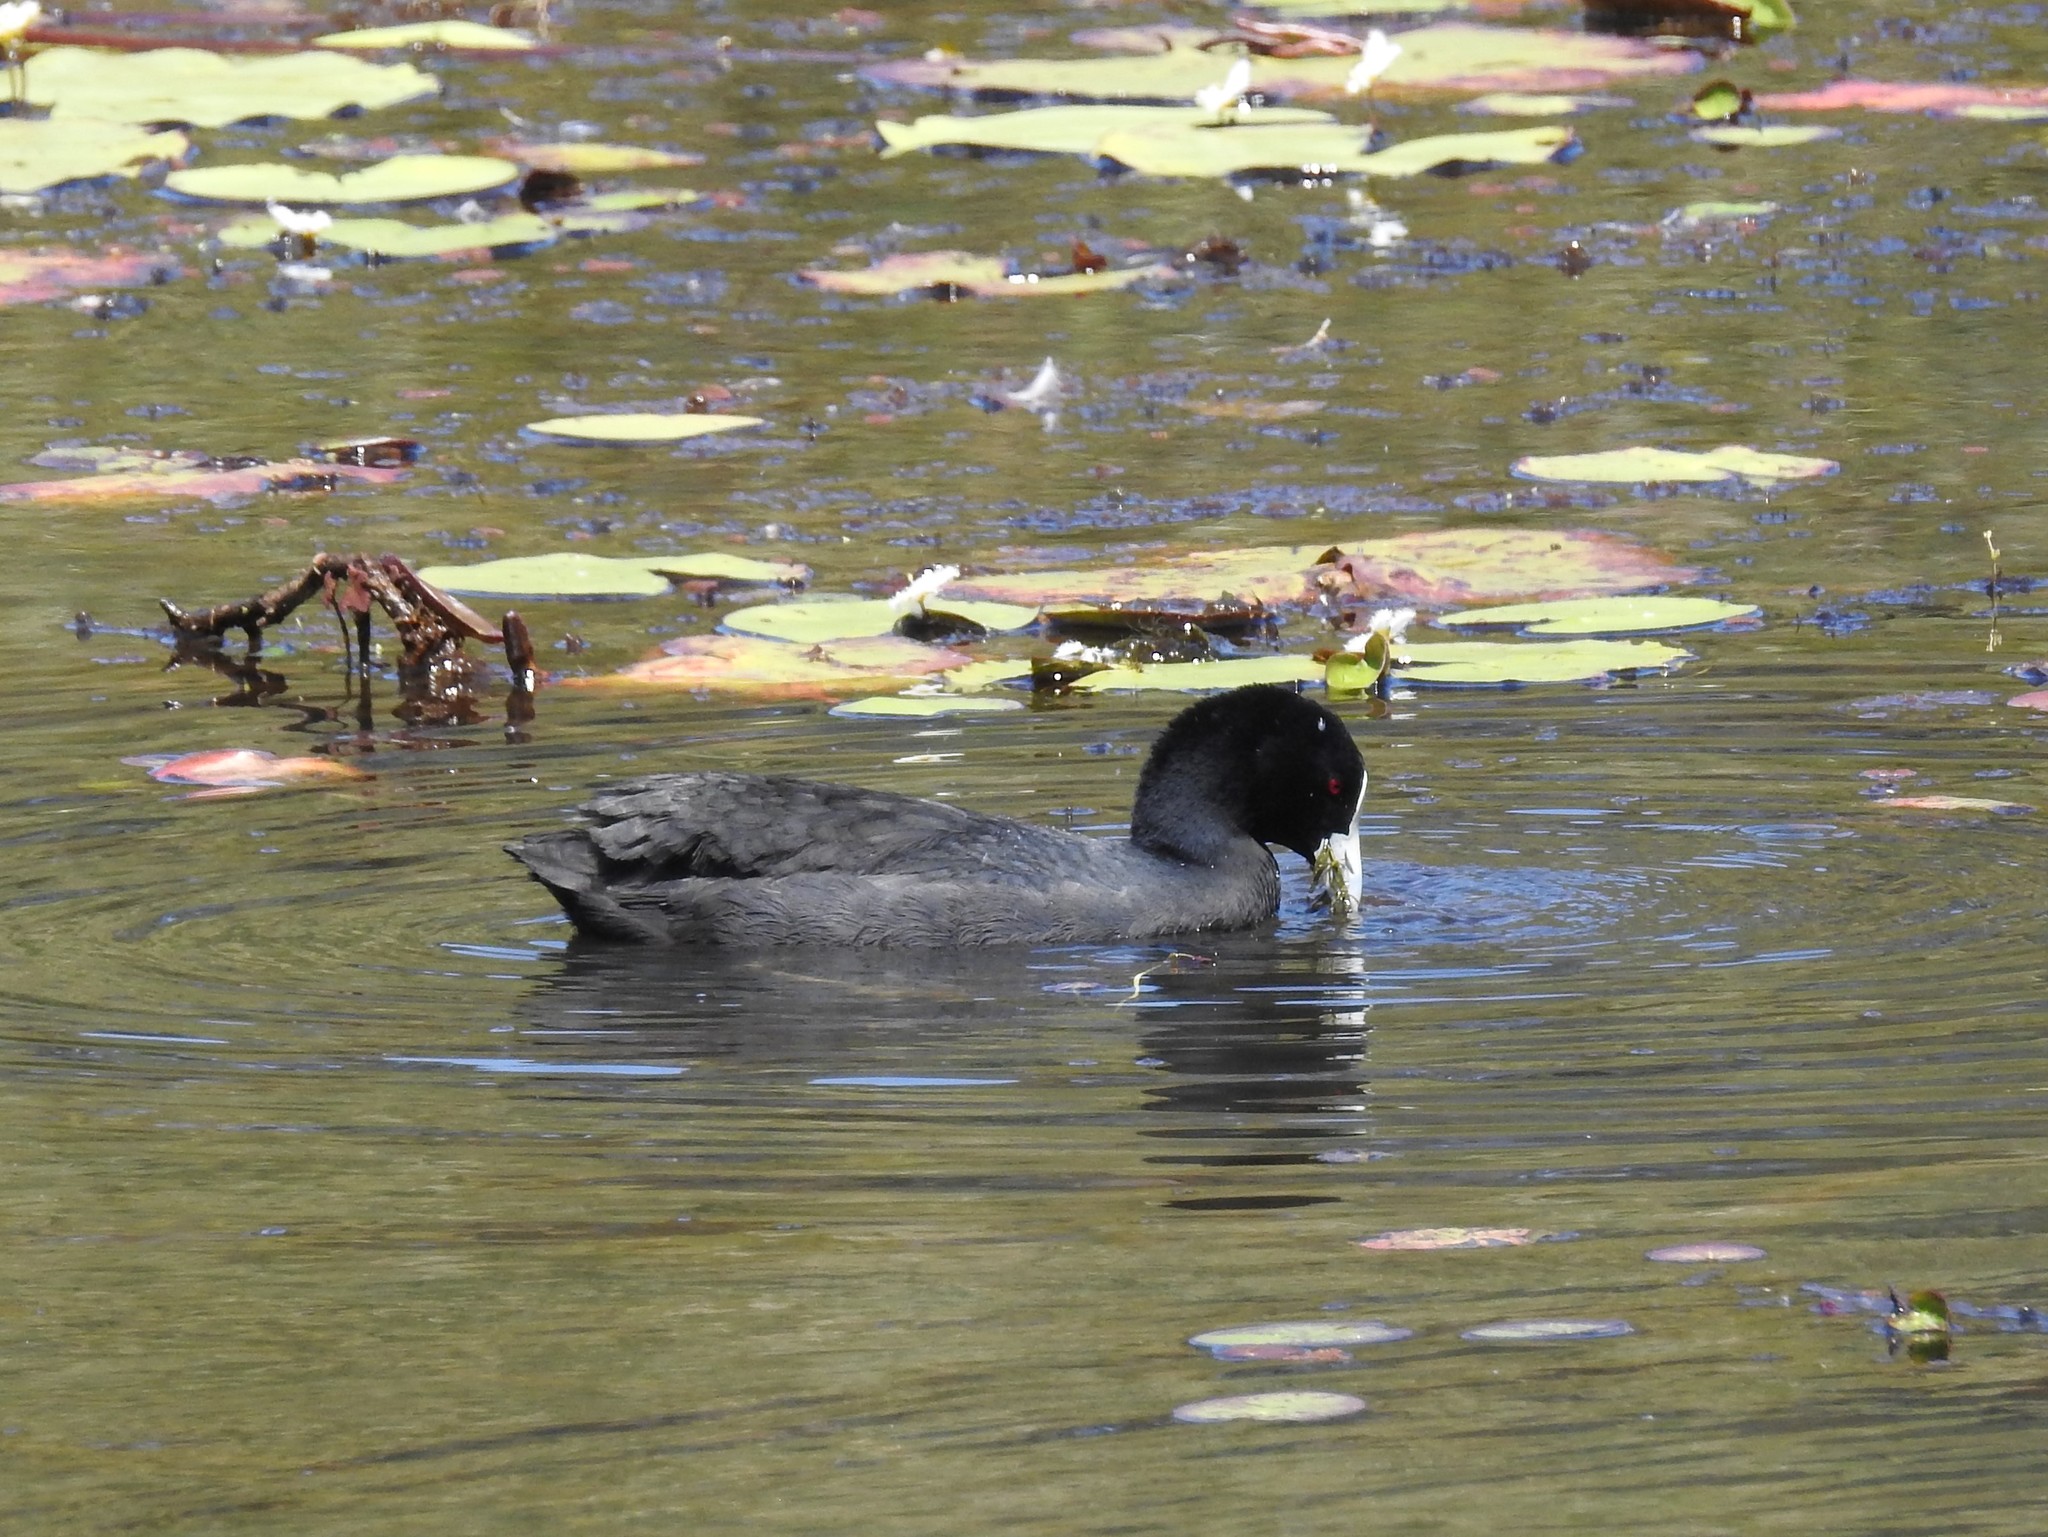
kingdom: Animalia
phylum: Chordata
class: Aves
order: Gruiformes
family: Rallidae
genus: Fulica
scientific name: Fulica atra
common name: Eurasian coot
